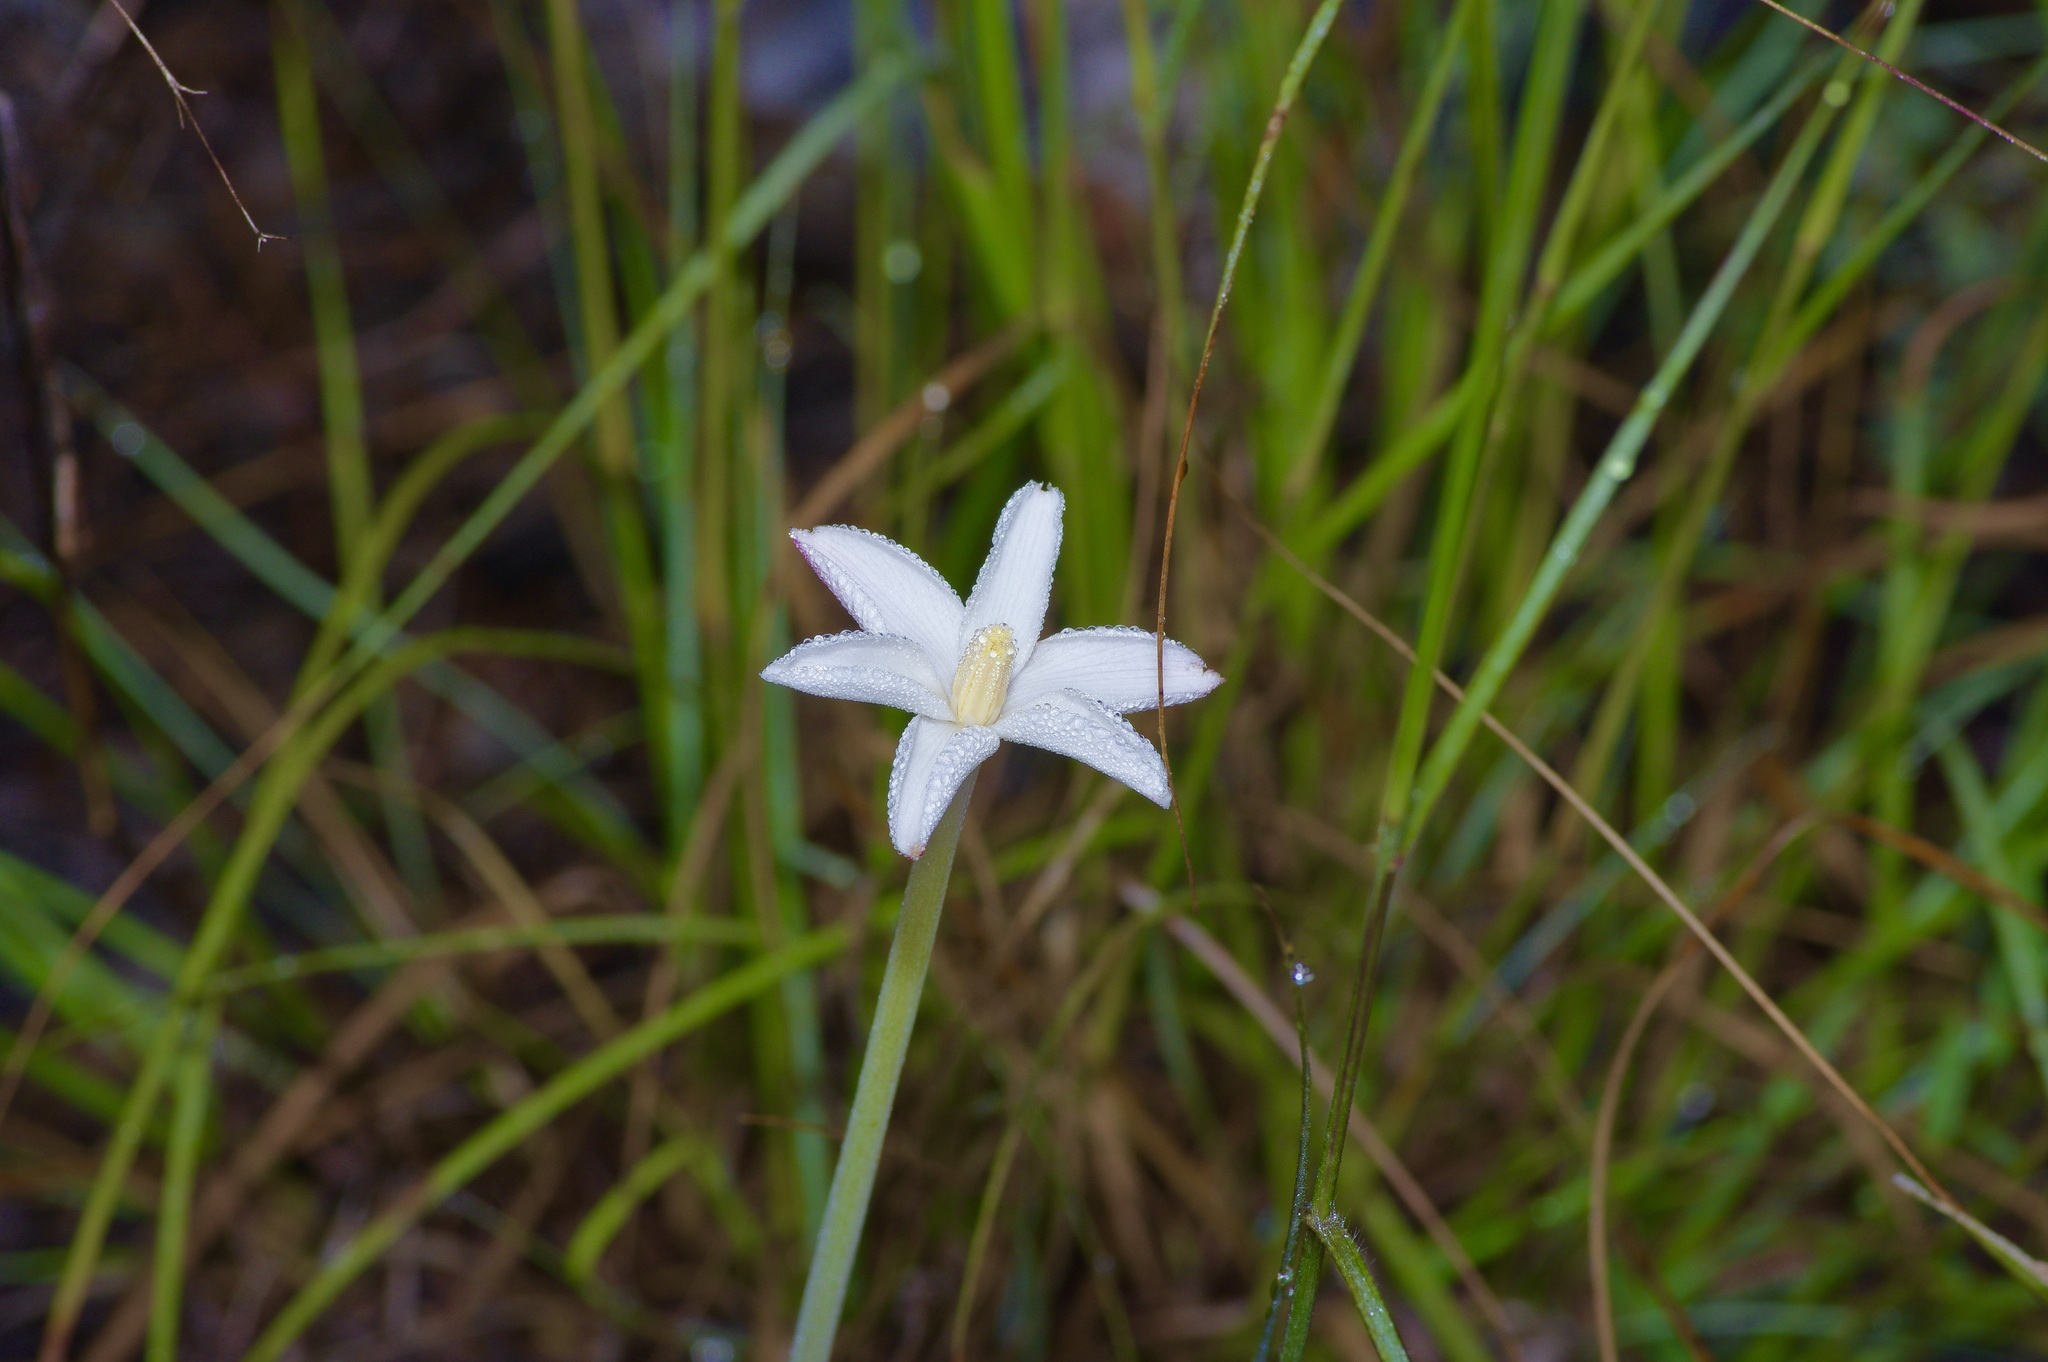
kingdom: Plantae
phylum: Tracheophyta
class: Liliopsida
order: Asparagales
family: Amaryllidaceae
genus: Zephyranthes
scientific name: Zephyranthes chlorosolen
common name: Evening rain-lily
